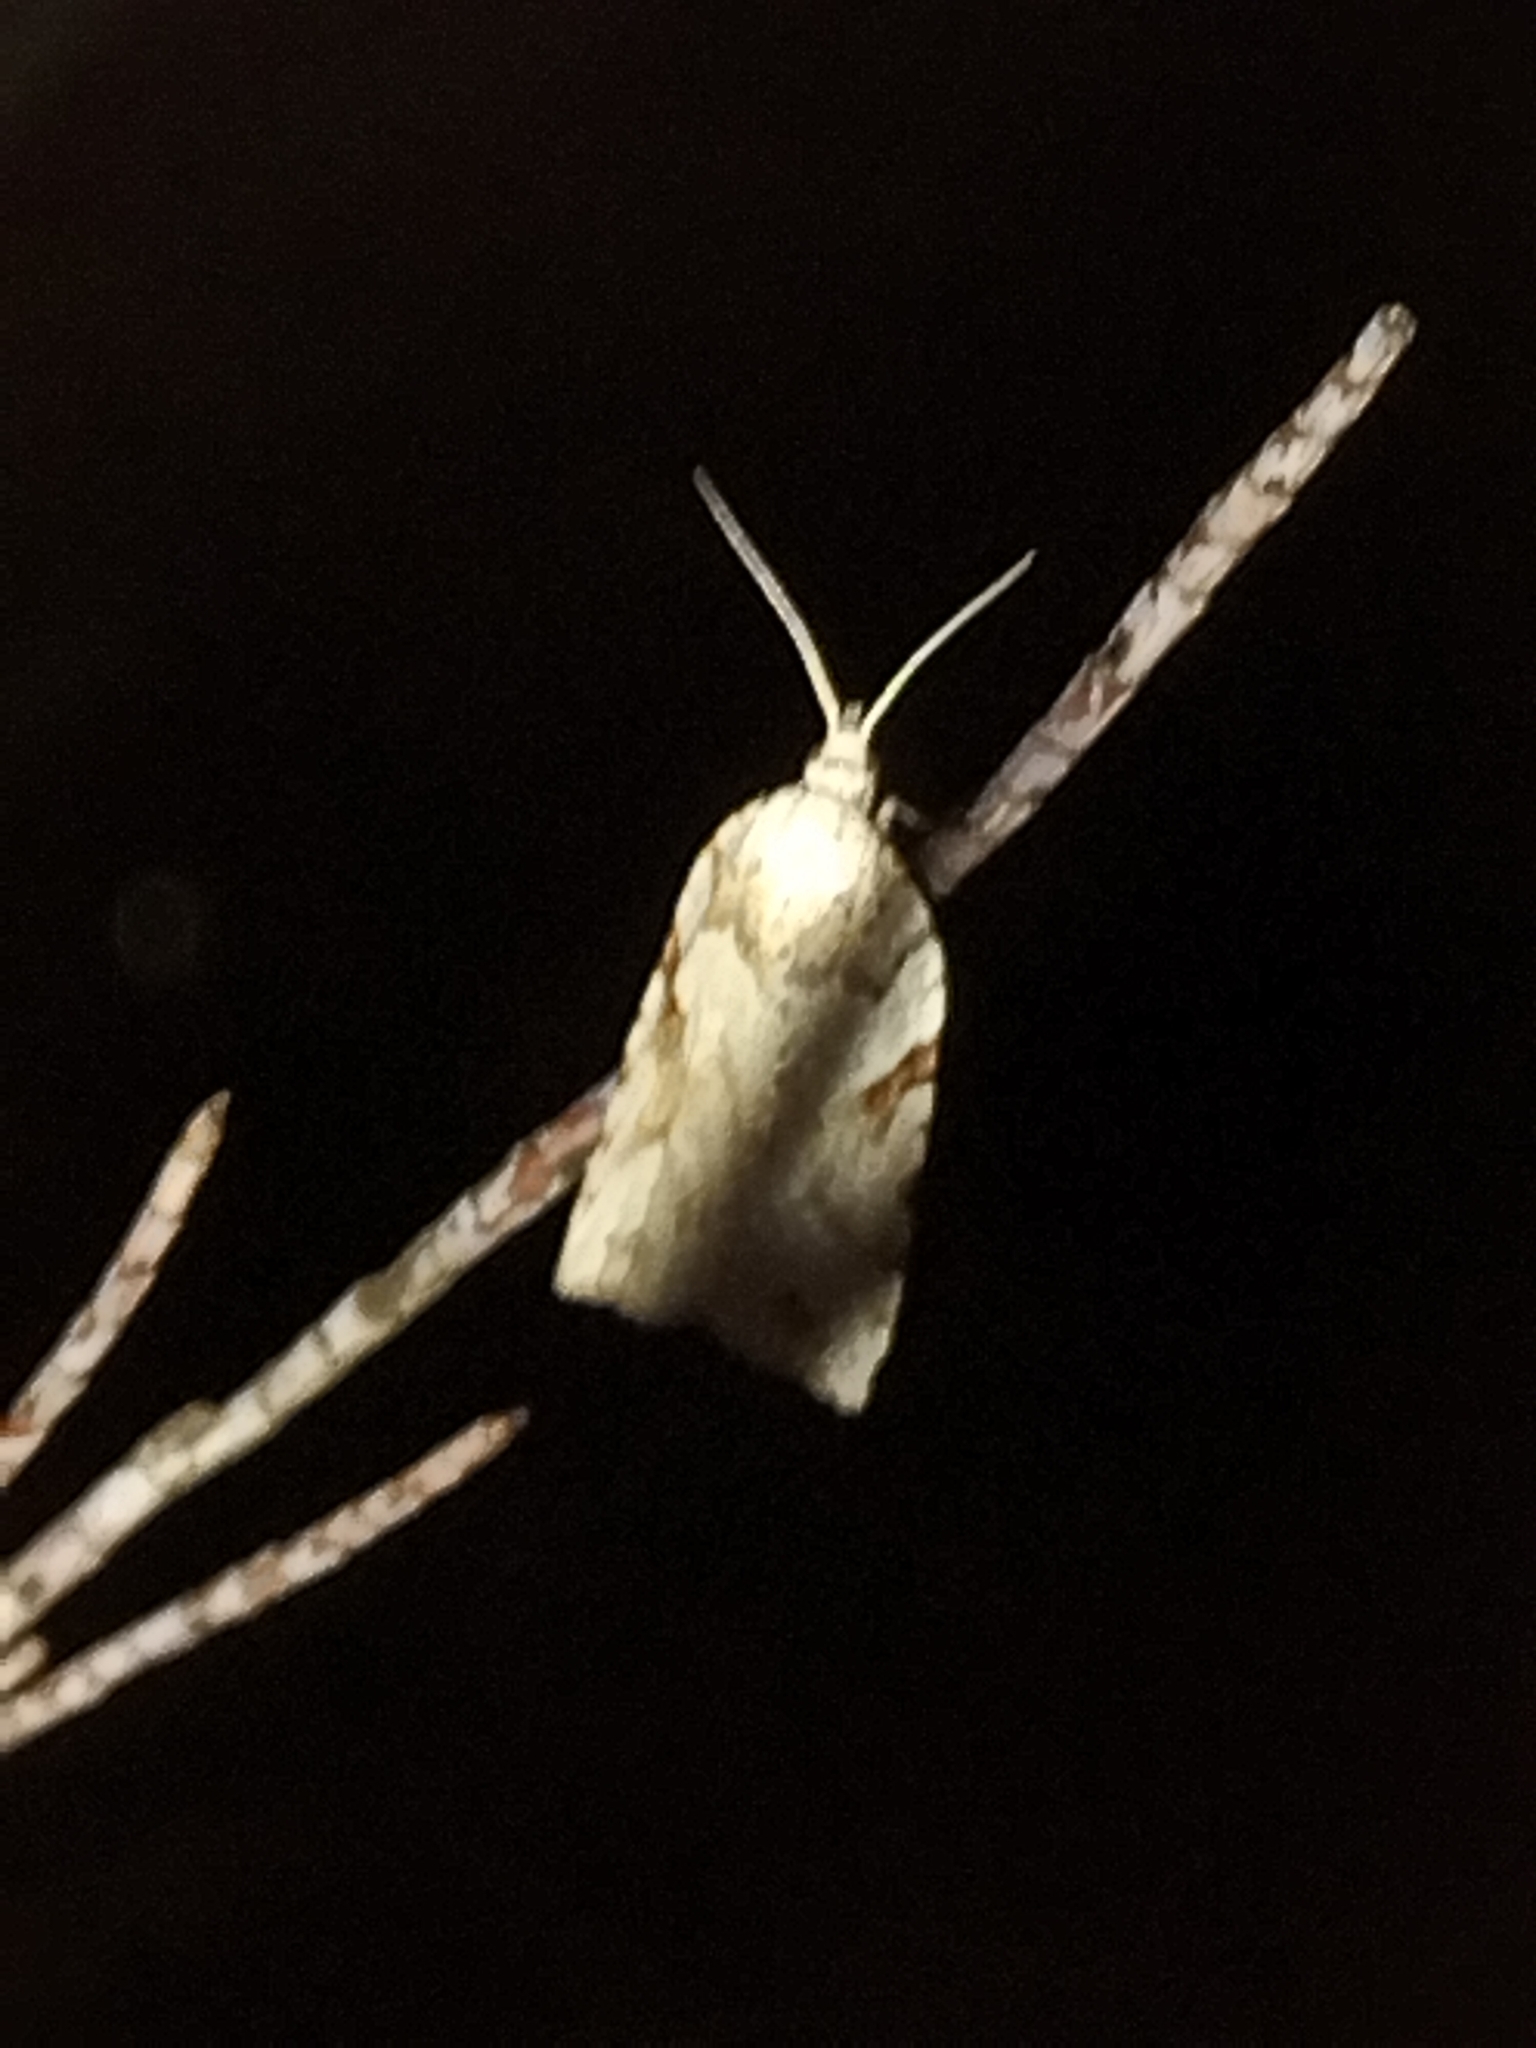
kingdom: Animalia
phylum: Arthropoda
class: Insecta
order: Lepidoptera
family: Tortricidae
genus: Leucotenes
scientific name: Leucotenes coprosmae
